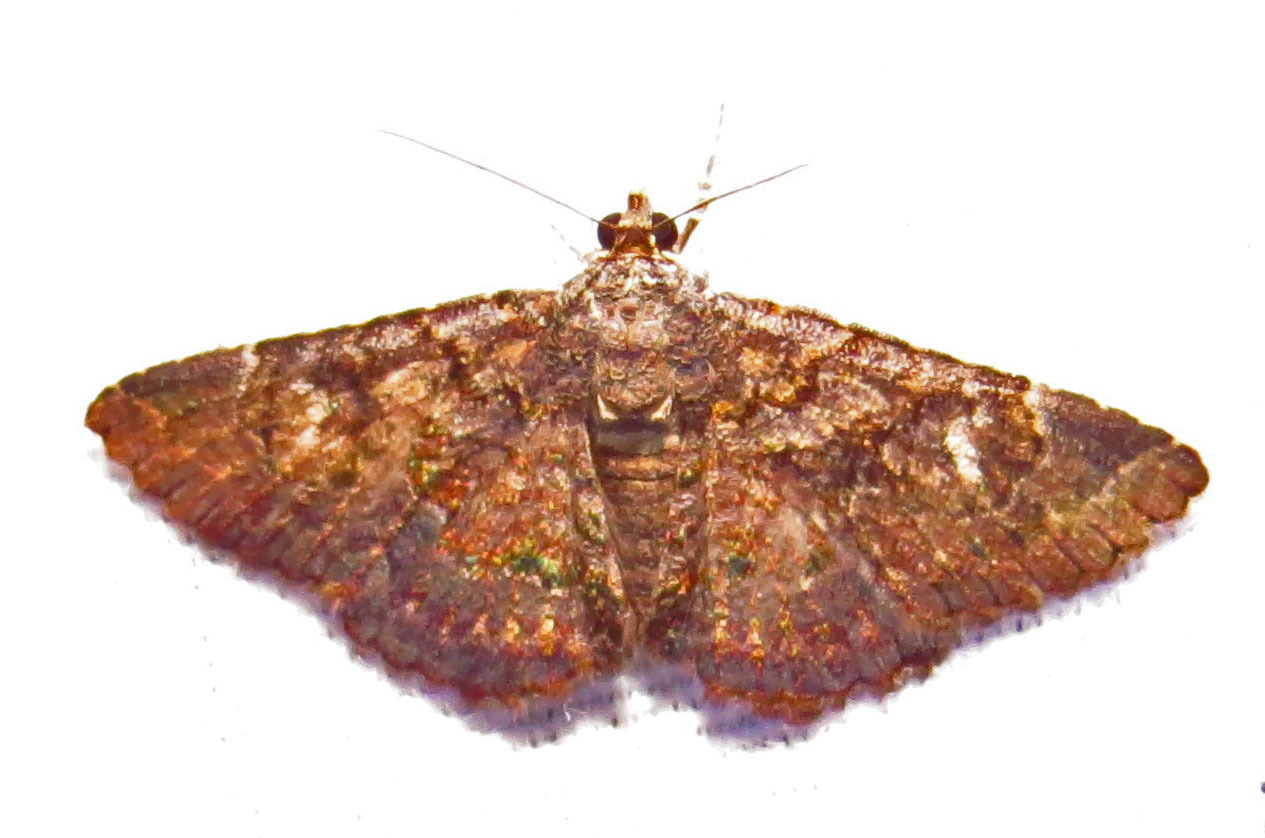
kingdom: Animalia
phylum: Arthropoda
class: Insecta
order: Lepidoptera
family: Erebidae
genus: Toxonprucha
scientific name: Toxonprucha excavata
